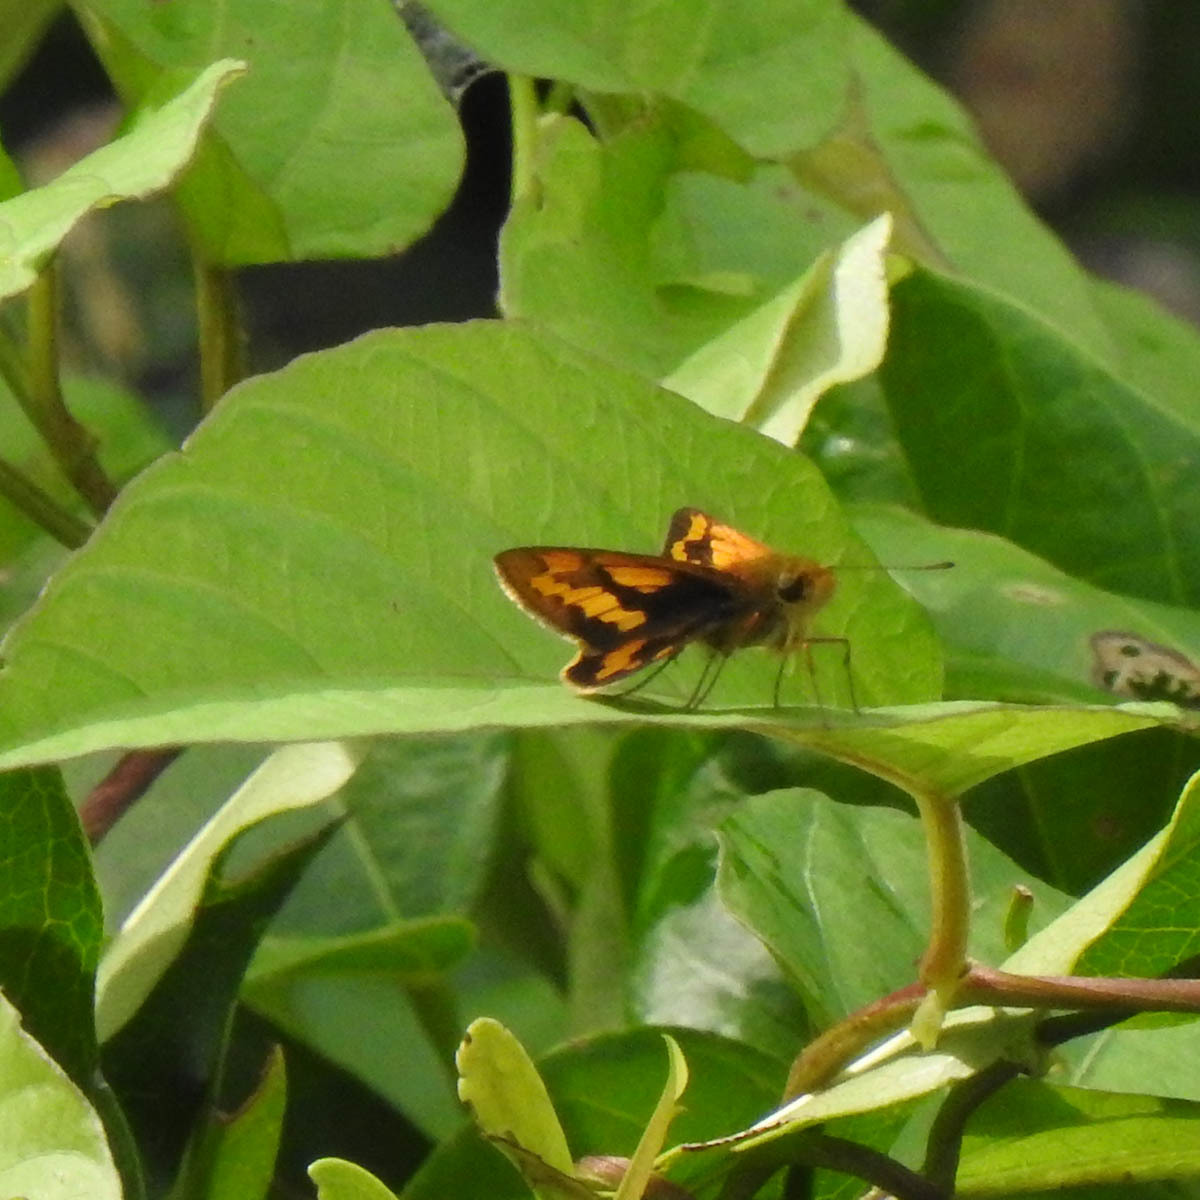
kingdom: Animalia
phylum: Arthropoda
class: Insecta
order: Lepidoptera
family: Hesperiidae
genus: Telicota
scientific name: Telicota bambusae
